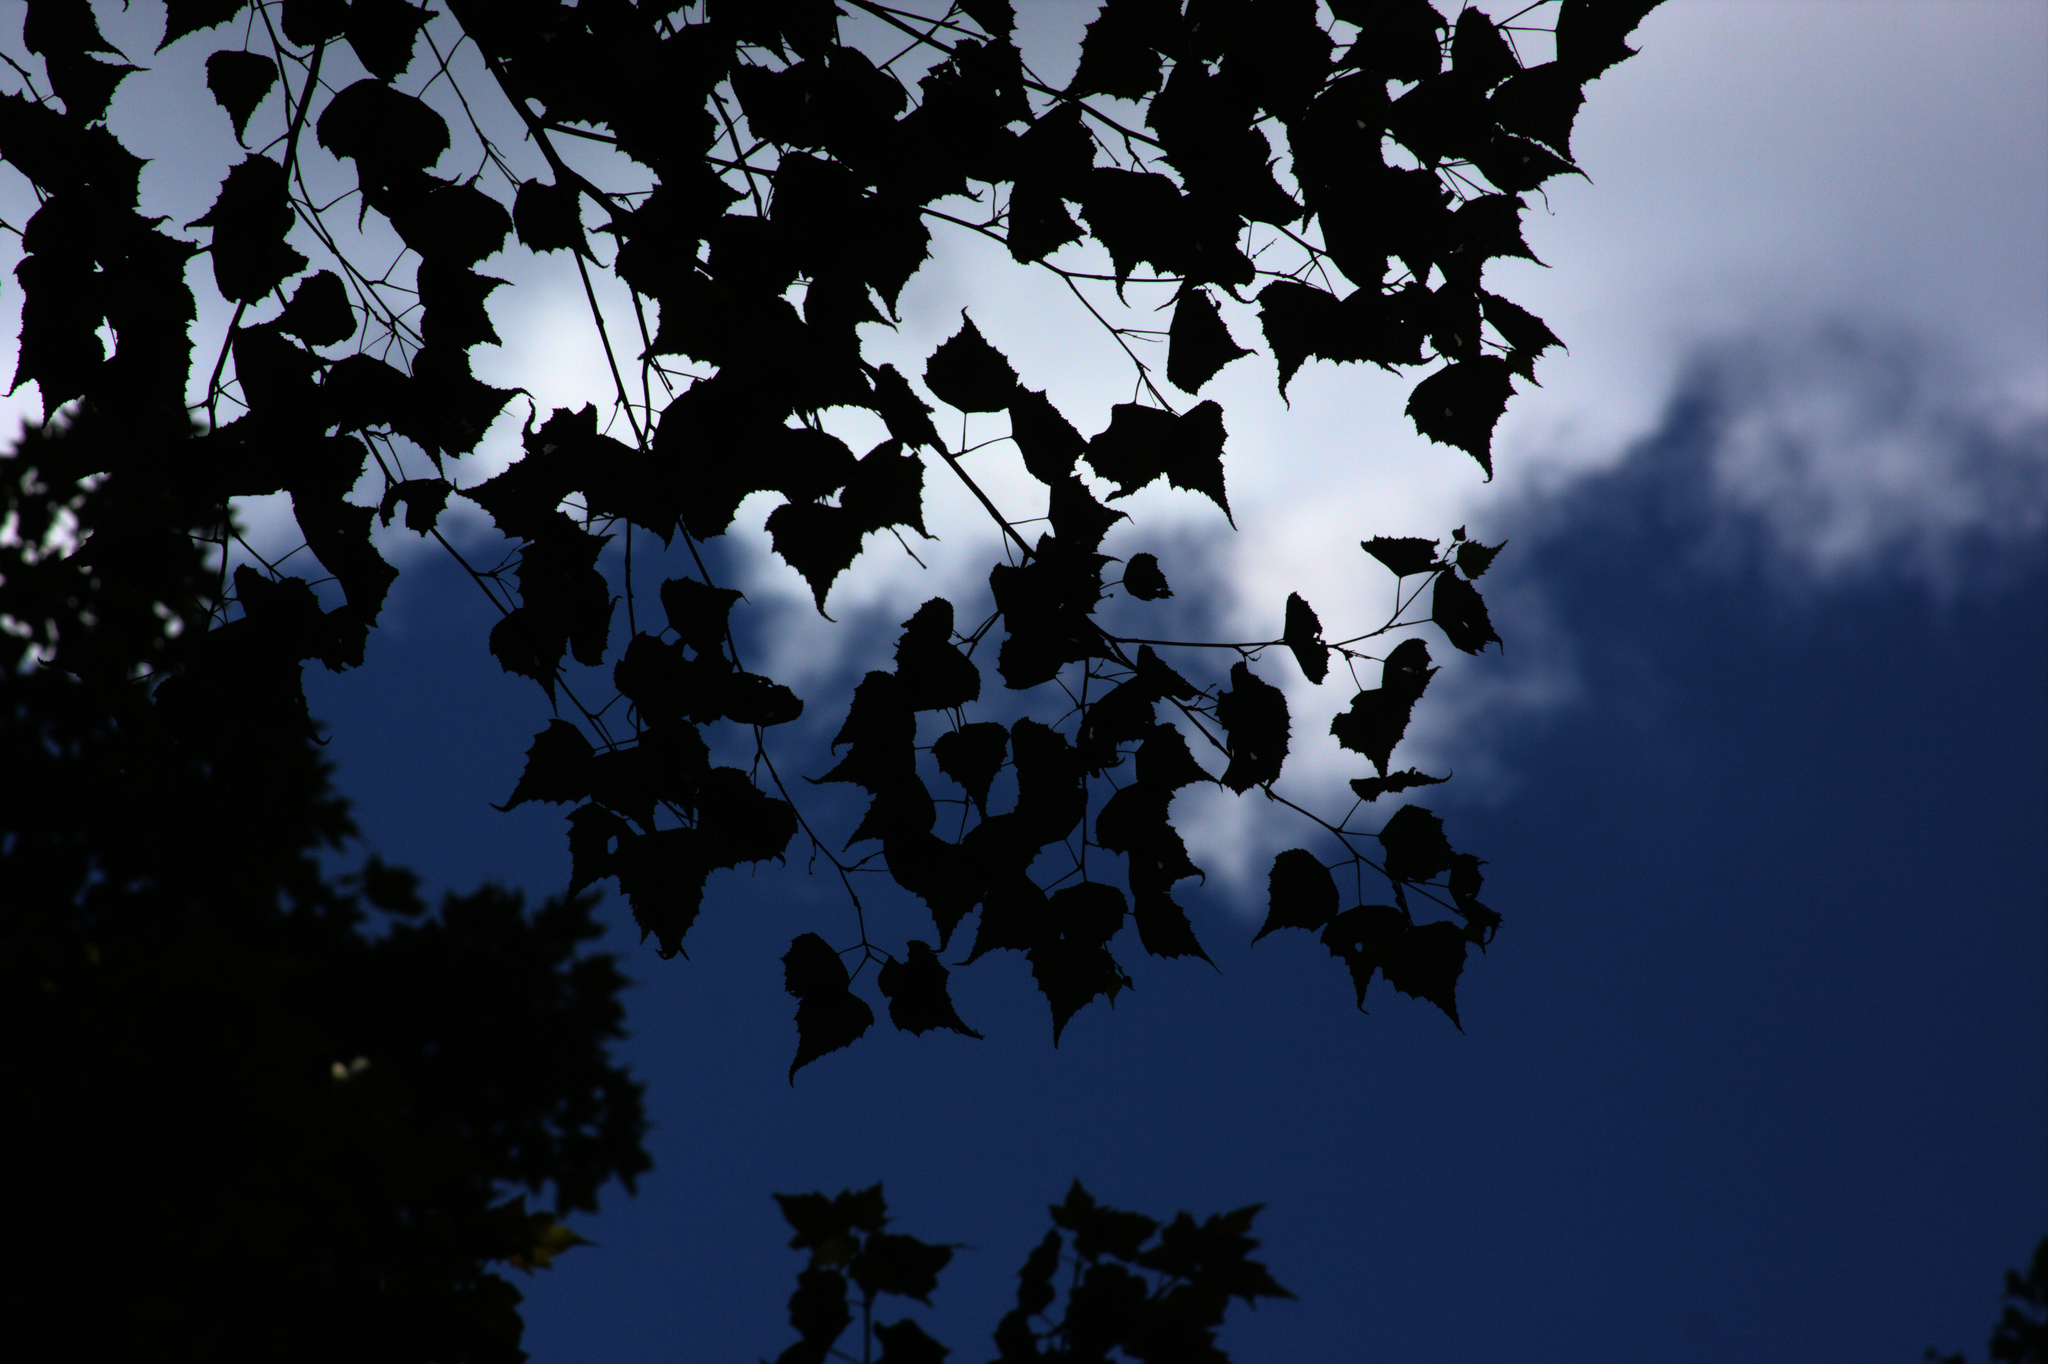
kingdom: Plantae
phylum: Tracheophyta
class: Magnoliopsida
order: Fagales
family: Betulaceae
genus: Betula
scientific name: Betula populifolia
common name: Fire birch
